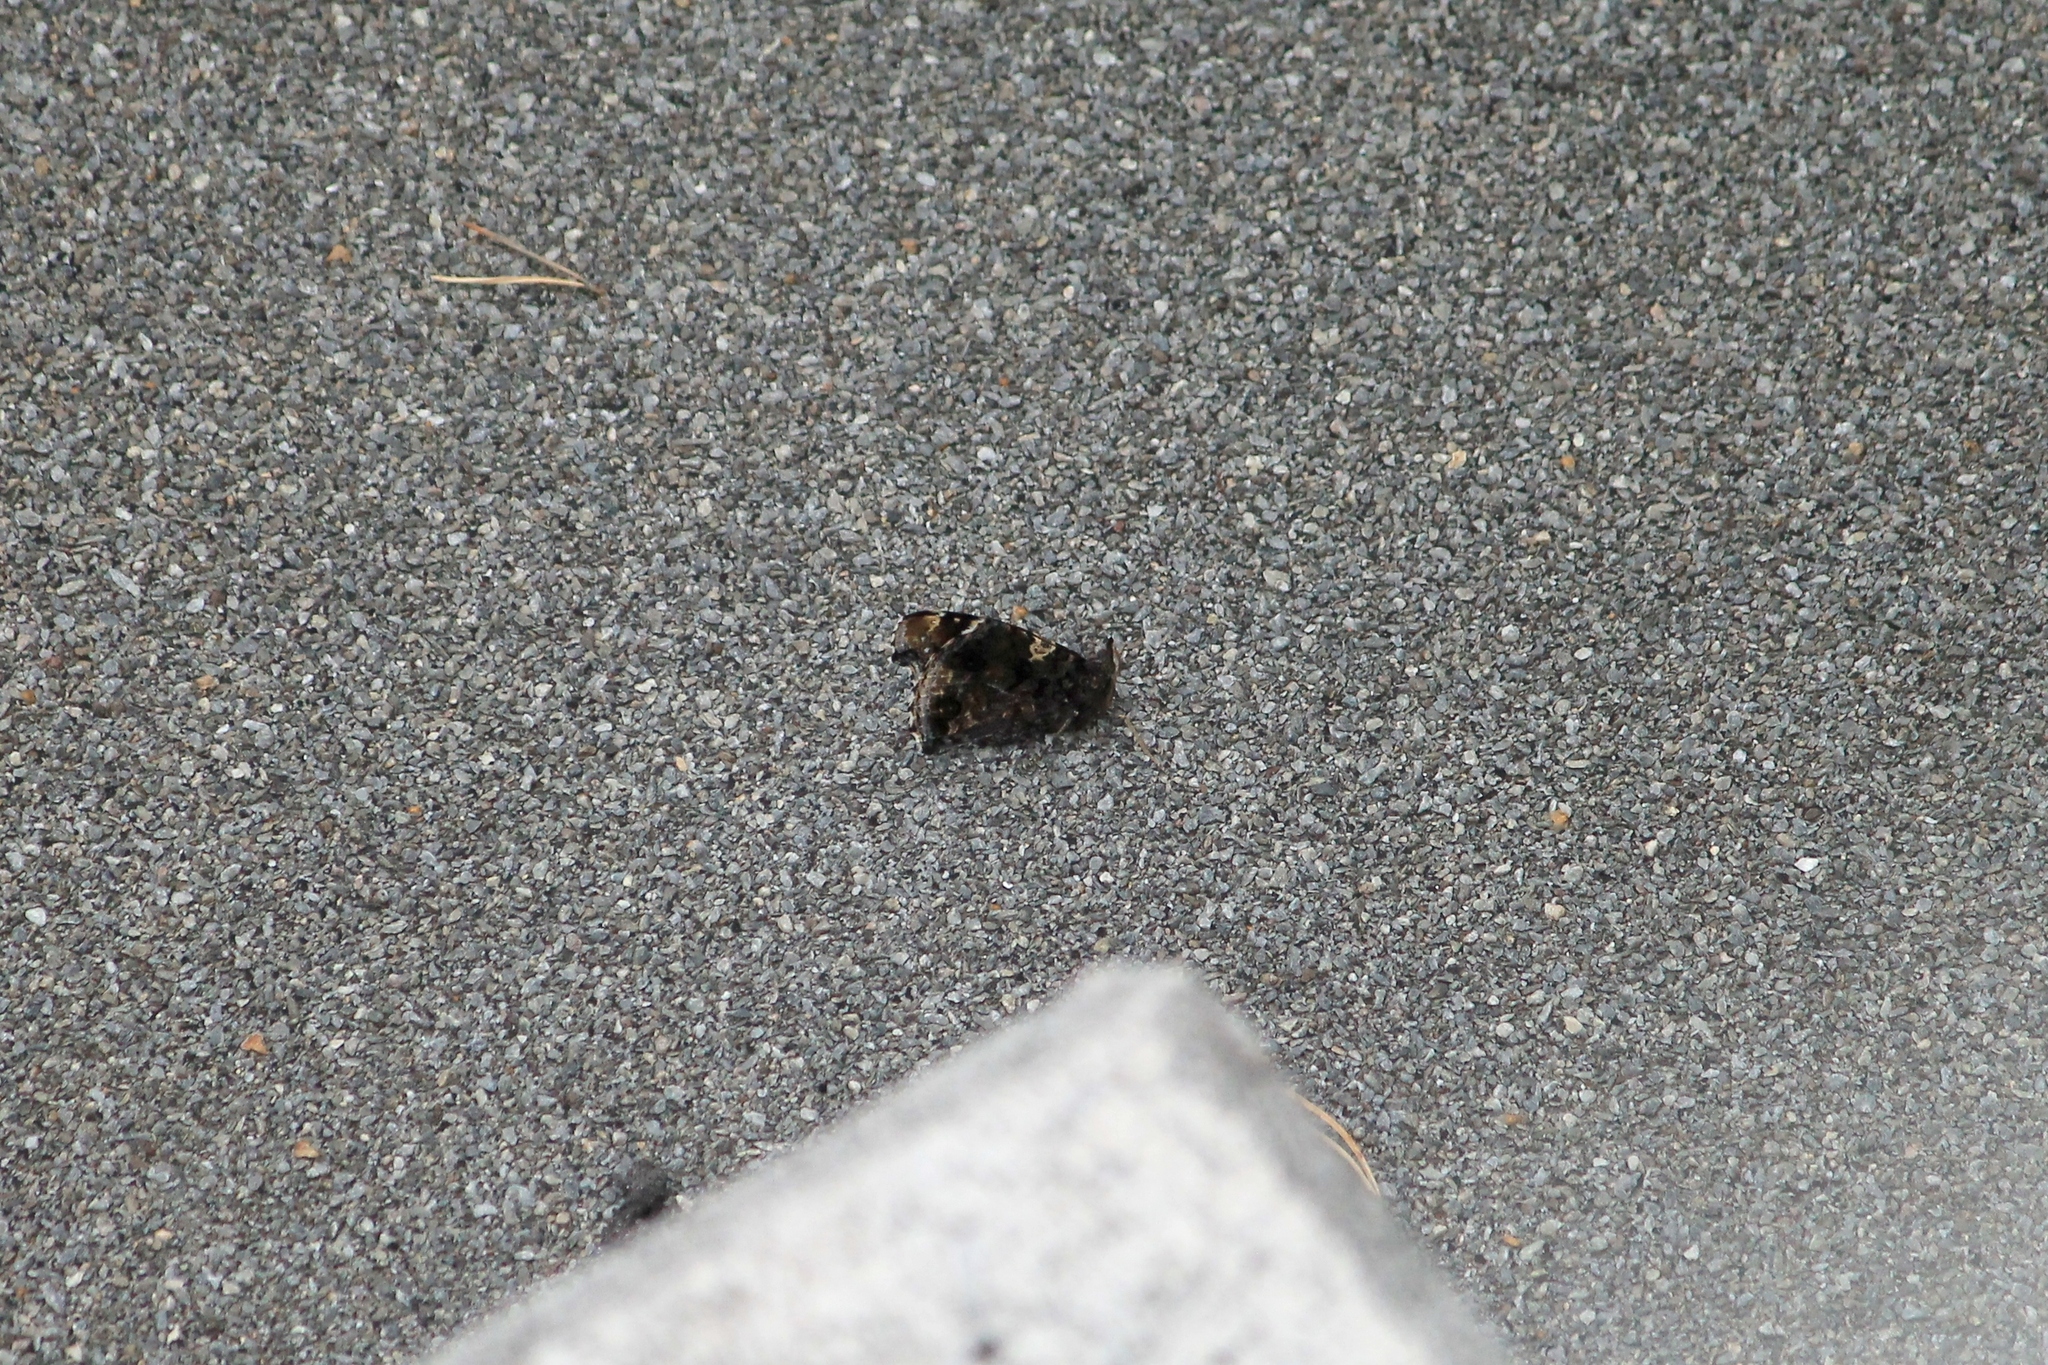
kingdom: Animalia
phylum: Arthropoda
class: Insecta
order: Lepidoptera
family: Nymphalidae
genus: Vanessa
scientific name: Vanessa atalanta
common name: Red admiral
